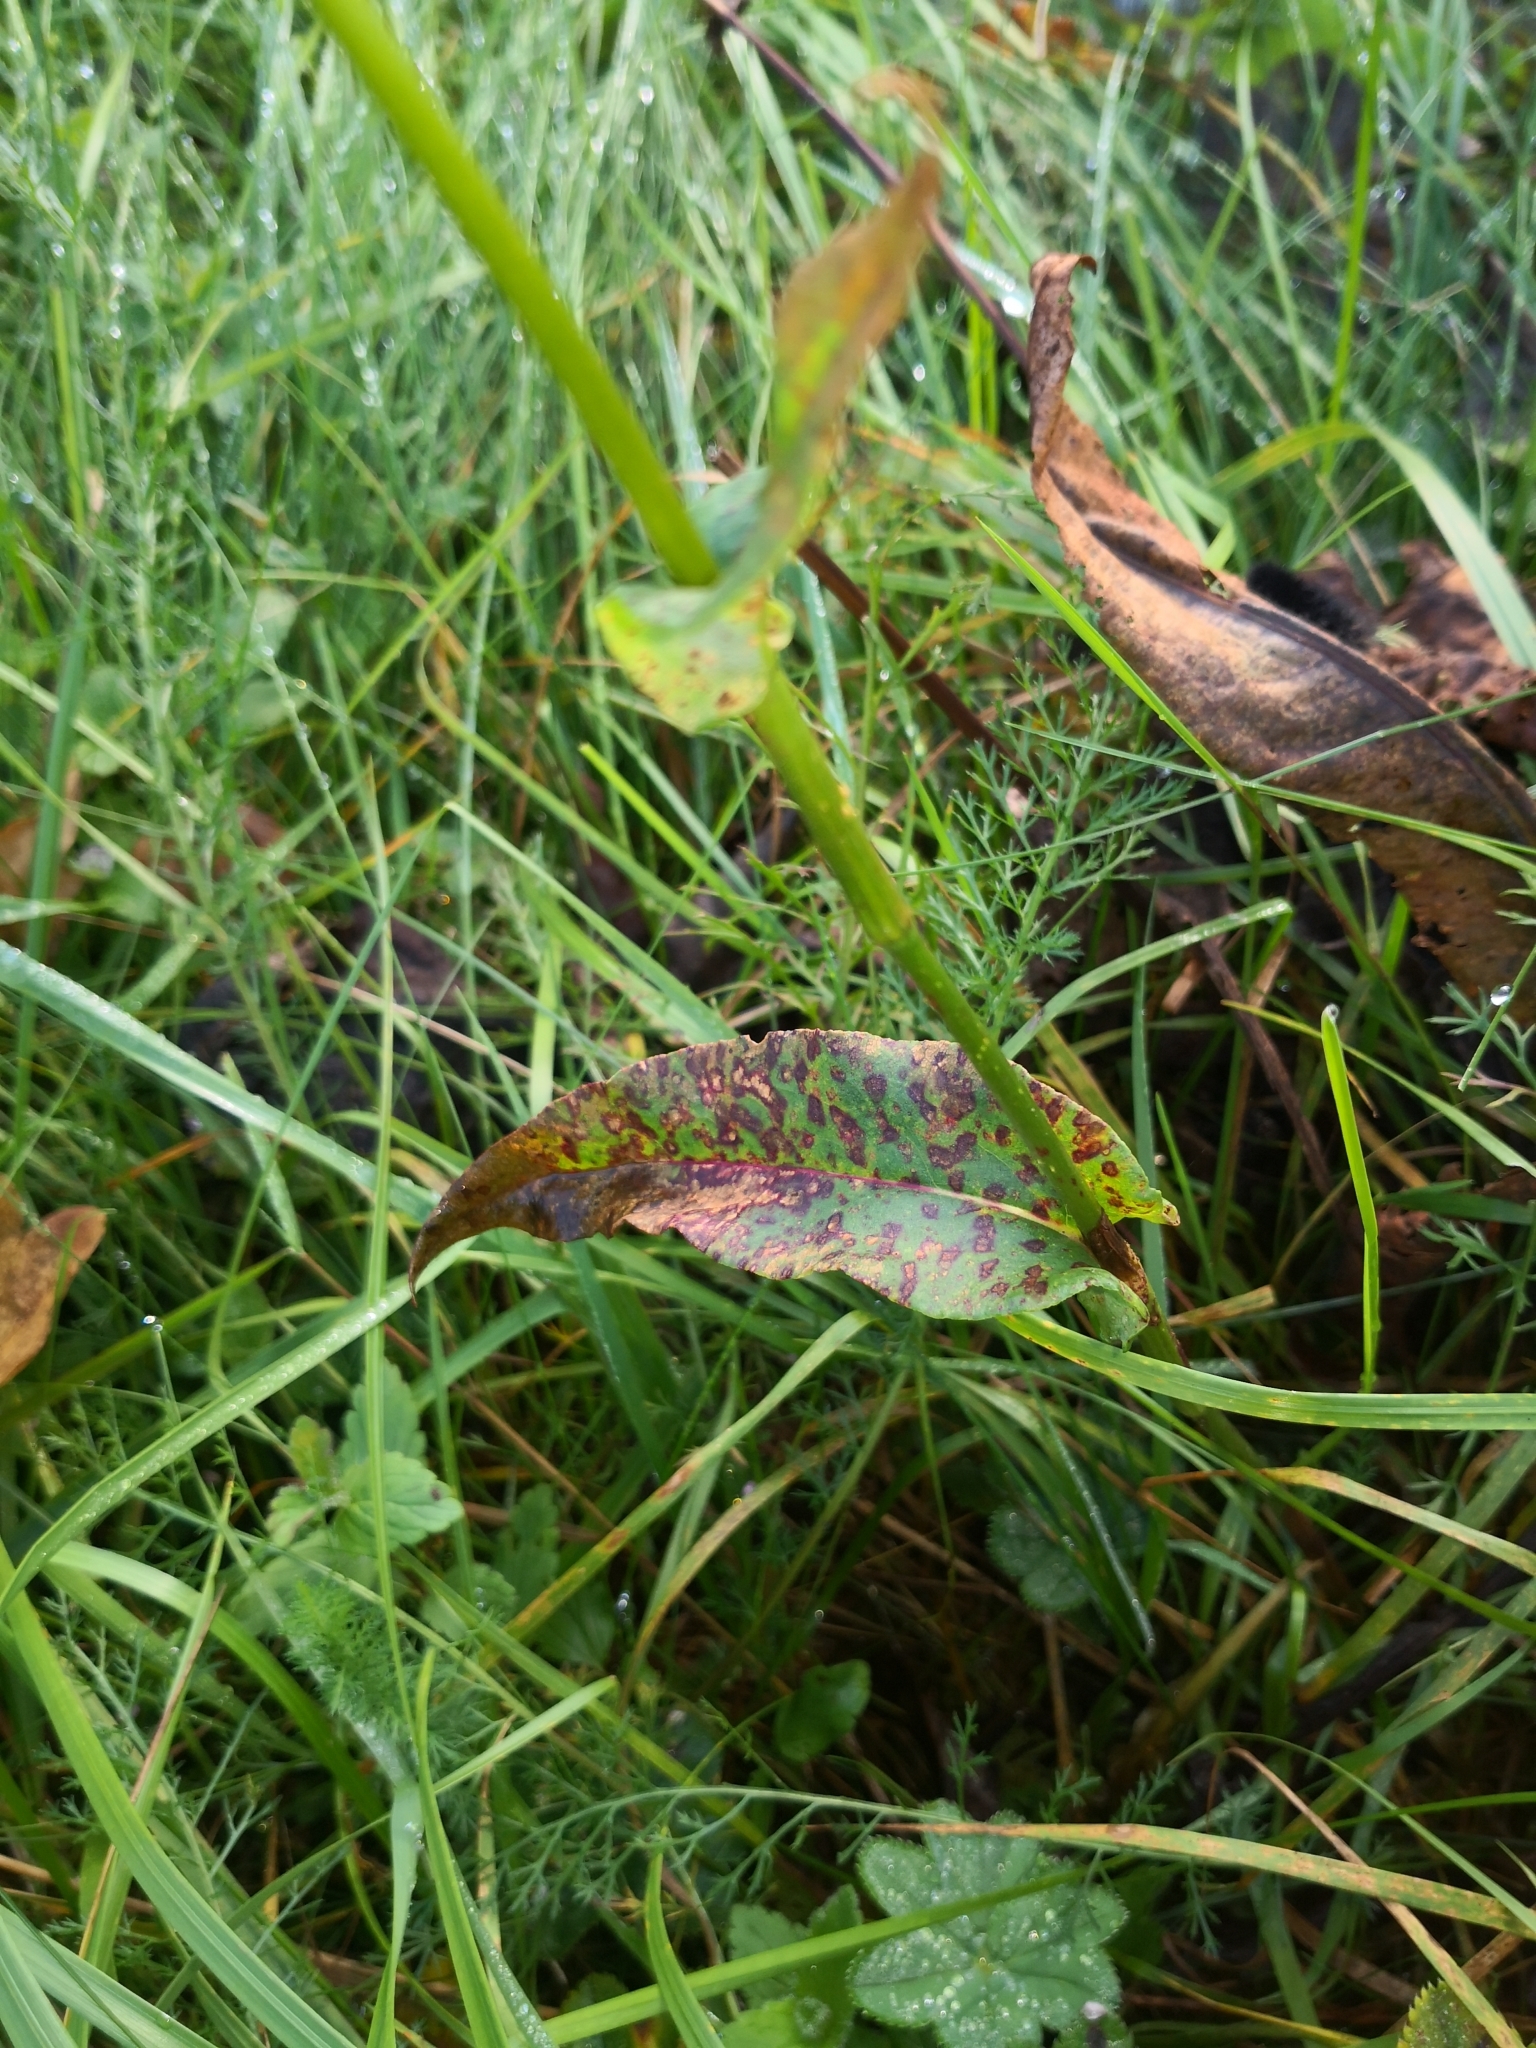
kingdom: Plantae
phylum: Tracheophyta
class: Magnoliopsida
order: Caryophyllales
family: Polygonaceae
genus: Bistorta
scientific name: Bistorta officinalis
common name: Common bistort
